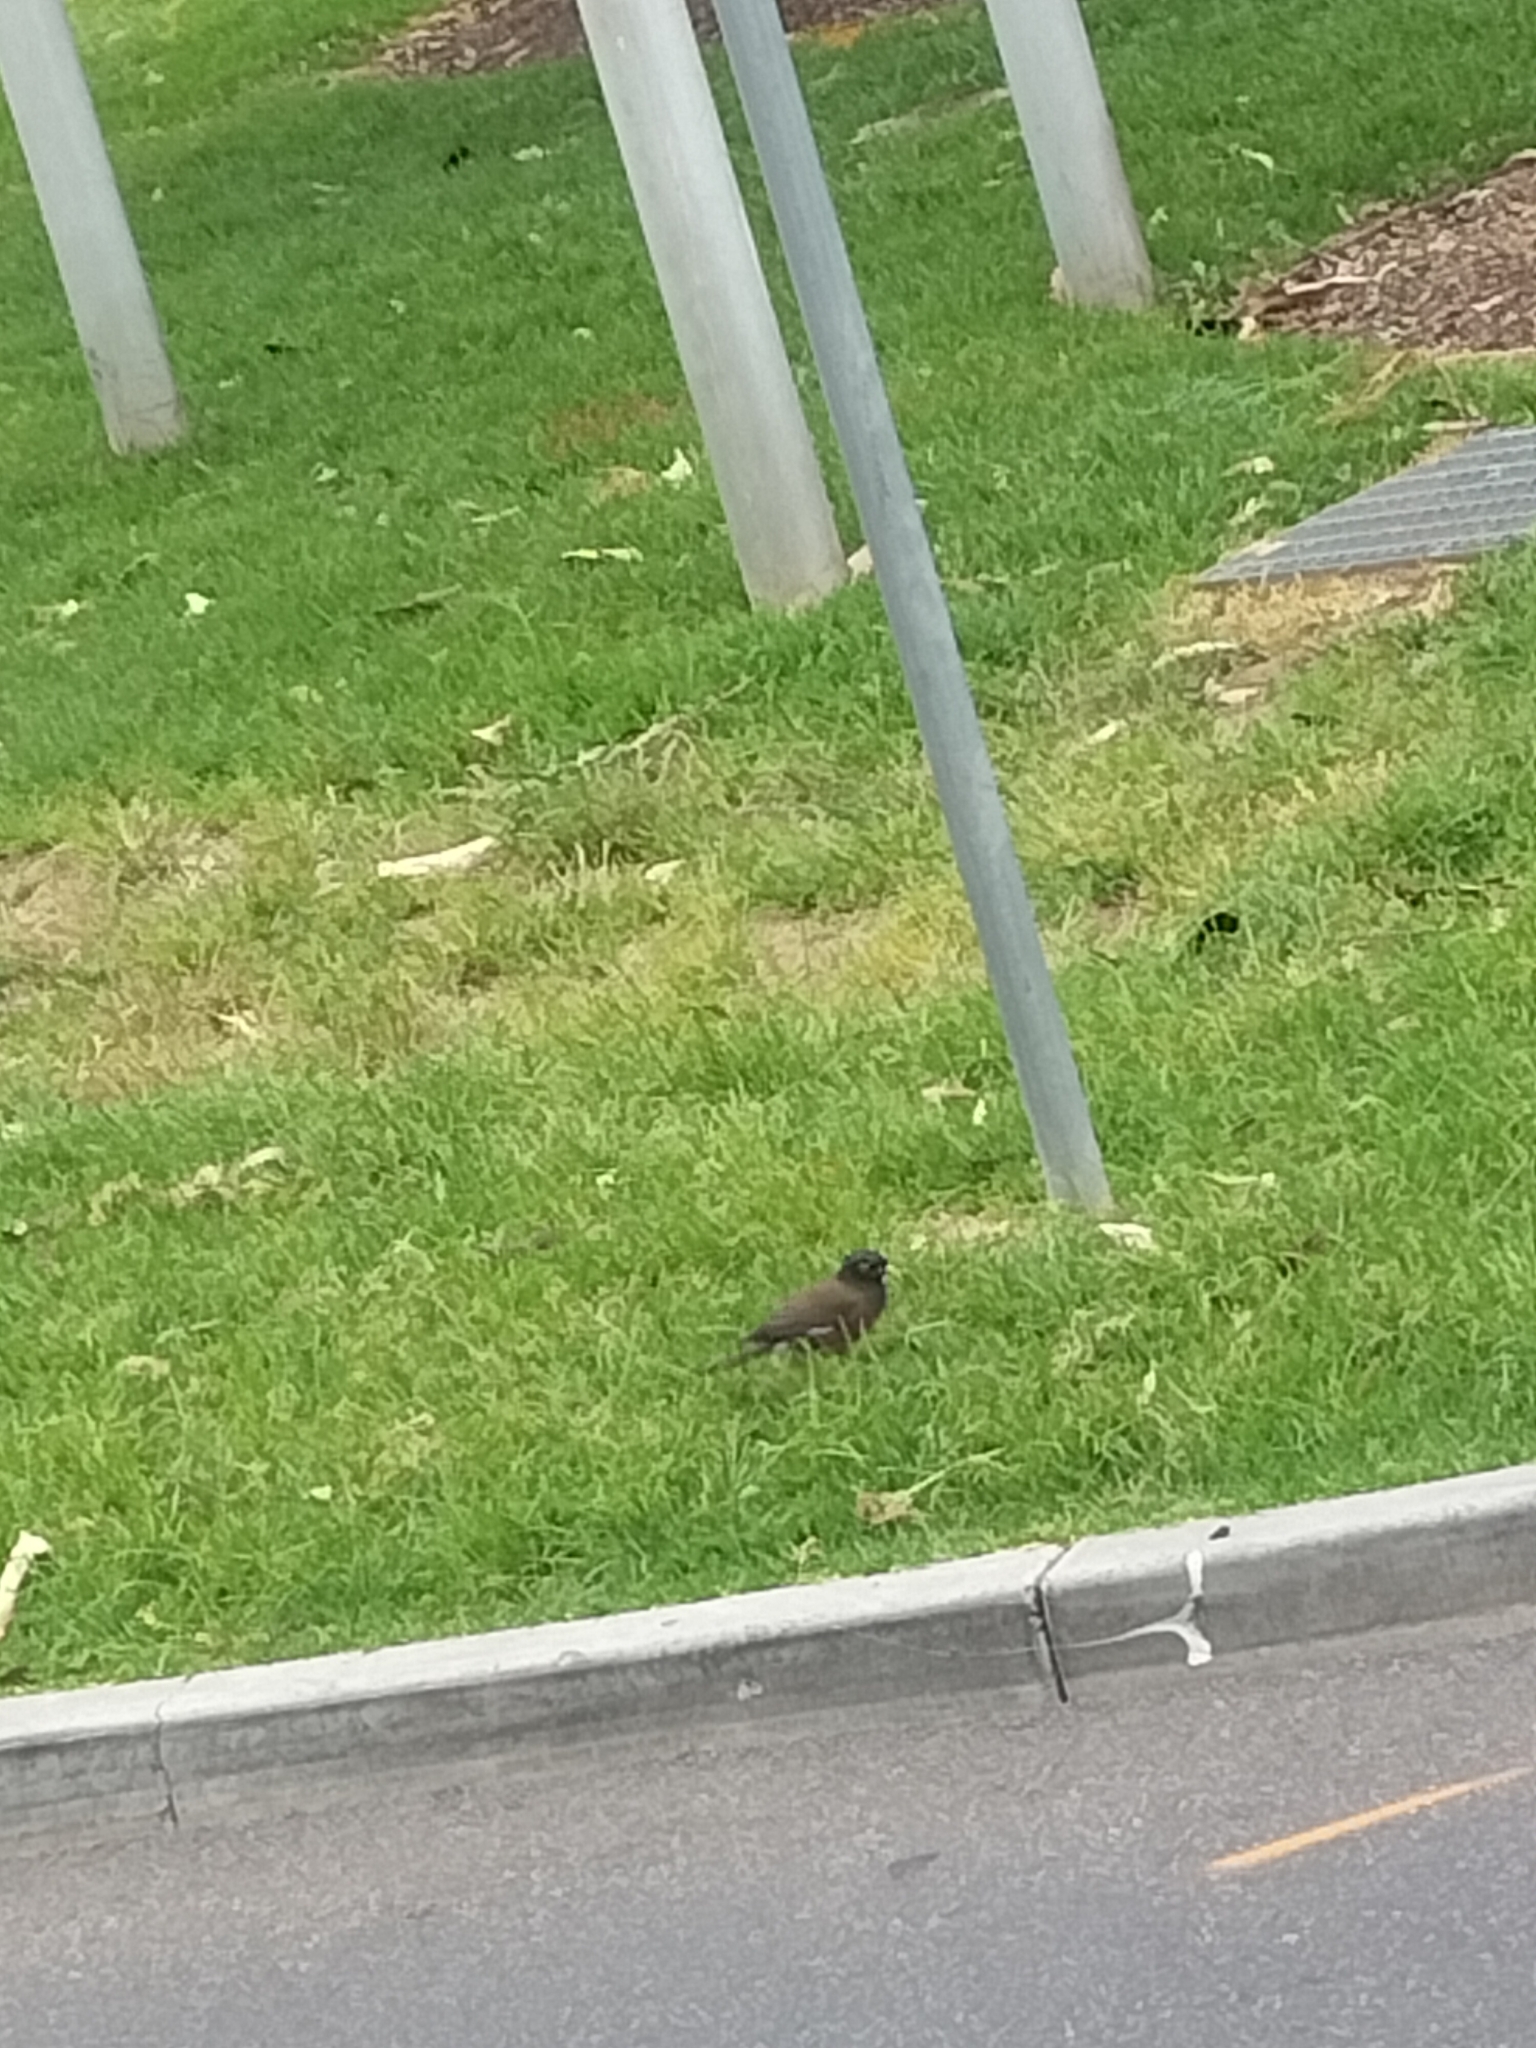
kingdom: Animalia
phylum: Chordata
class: Aves
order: Passeriformes
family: Sturnidae
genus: Acridotheres
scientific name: Acridotheres tristis
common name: Common myna
